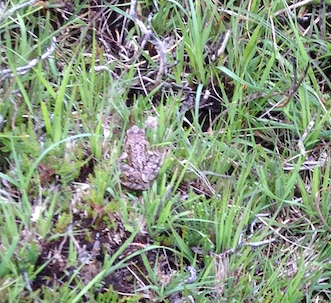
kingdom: Animalia
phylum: Chordata
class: Amphibia
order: Anura
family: Ranidae
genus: Rana
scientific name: Rana temporaria
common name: Common frog
